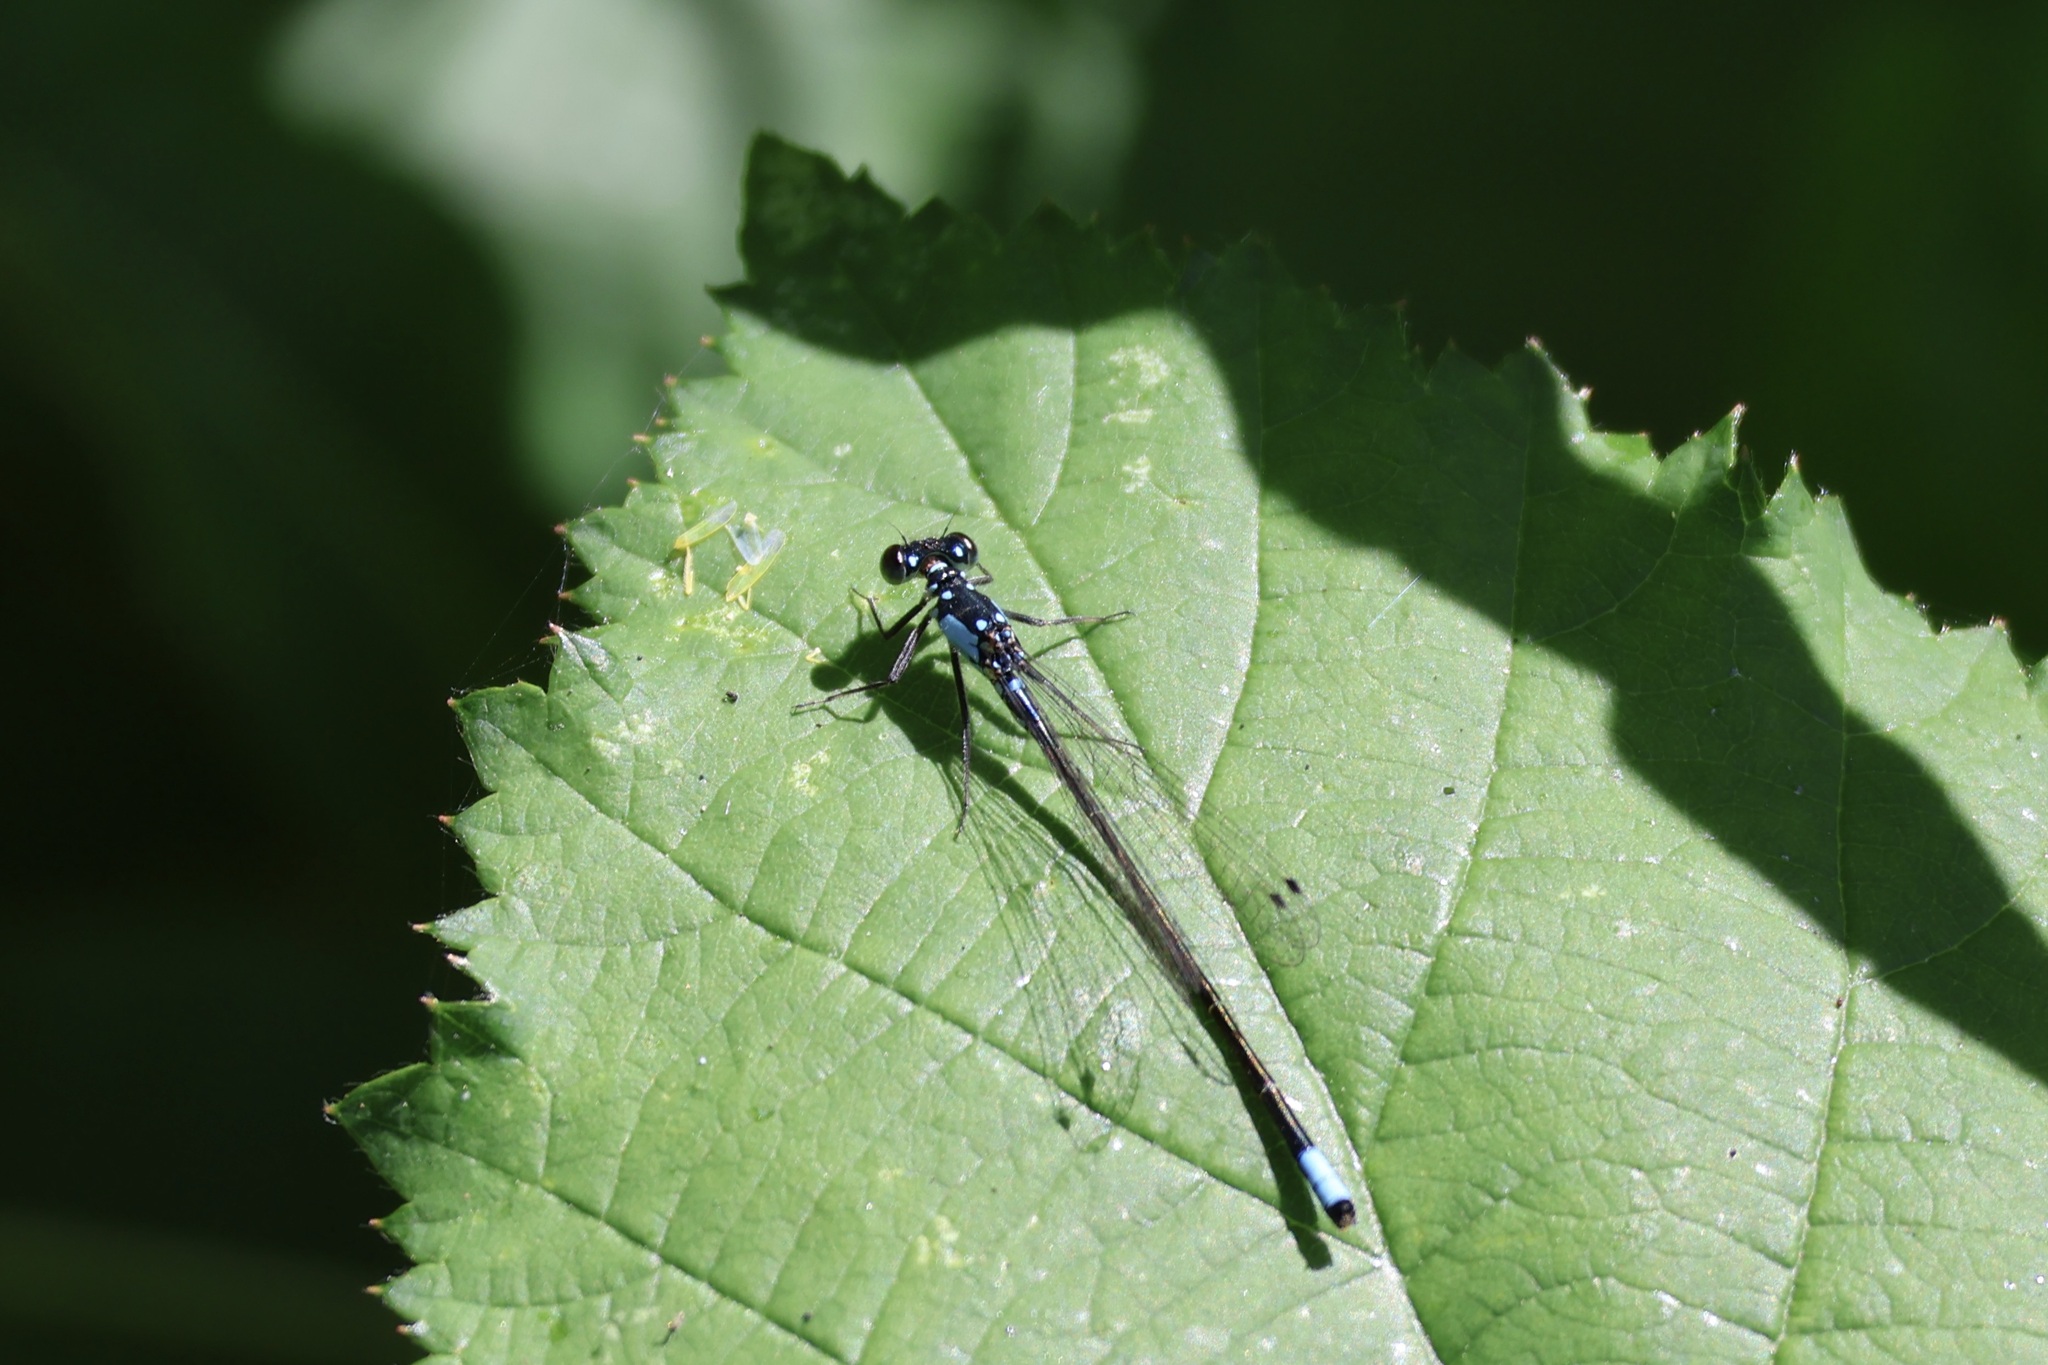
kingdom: Animalia
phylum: Arthropoda
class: Insecta
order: Odonata
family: Coenagrionidae
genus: Ischnura
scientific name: Ischnura cervula
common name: Pacific forktail
